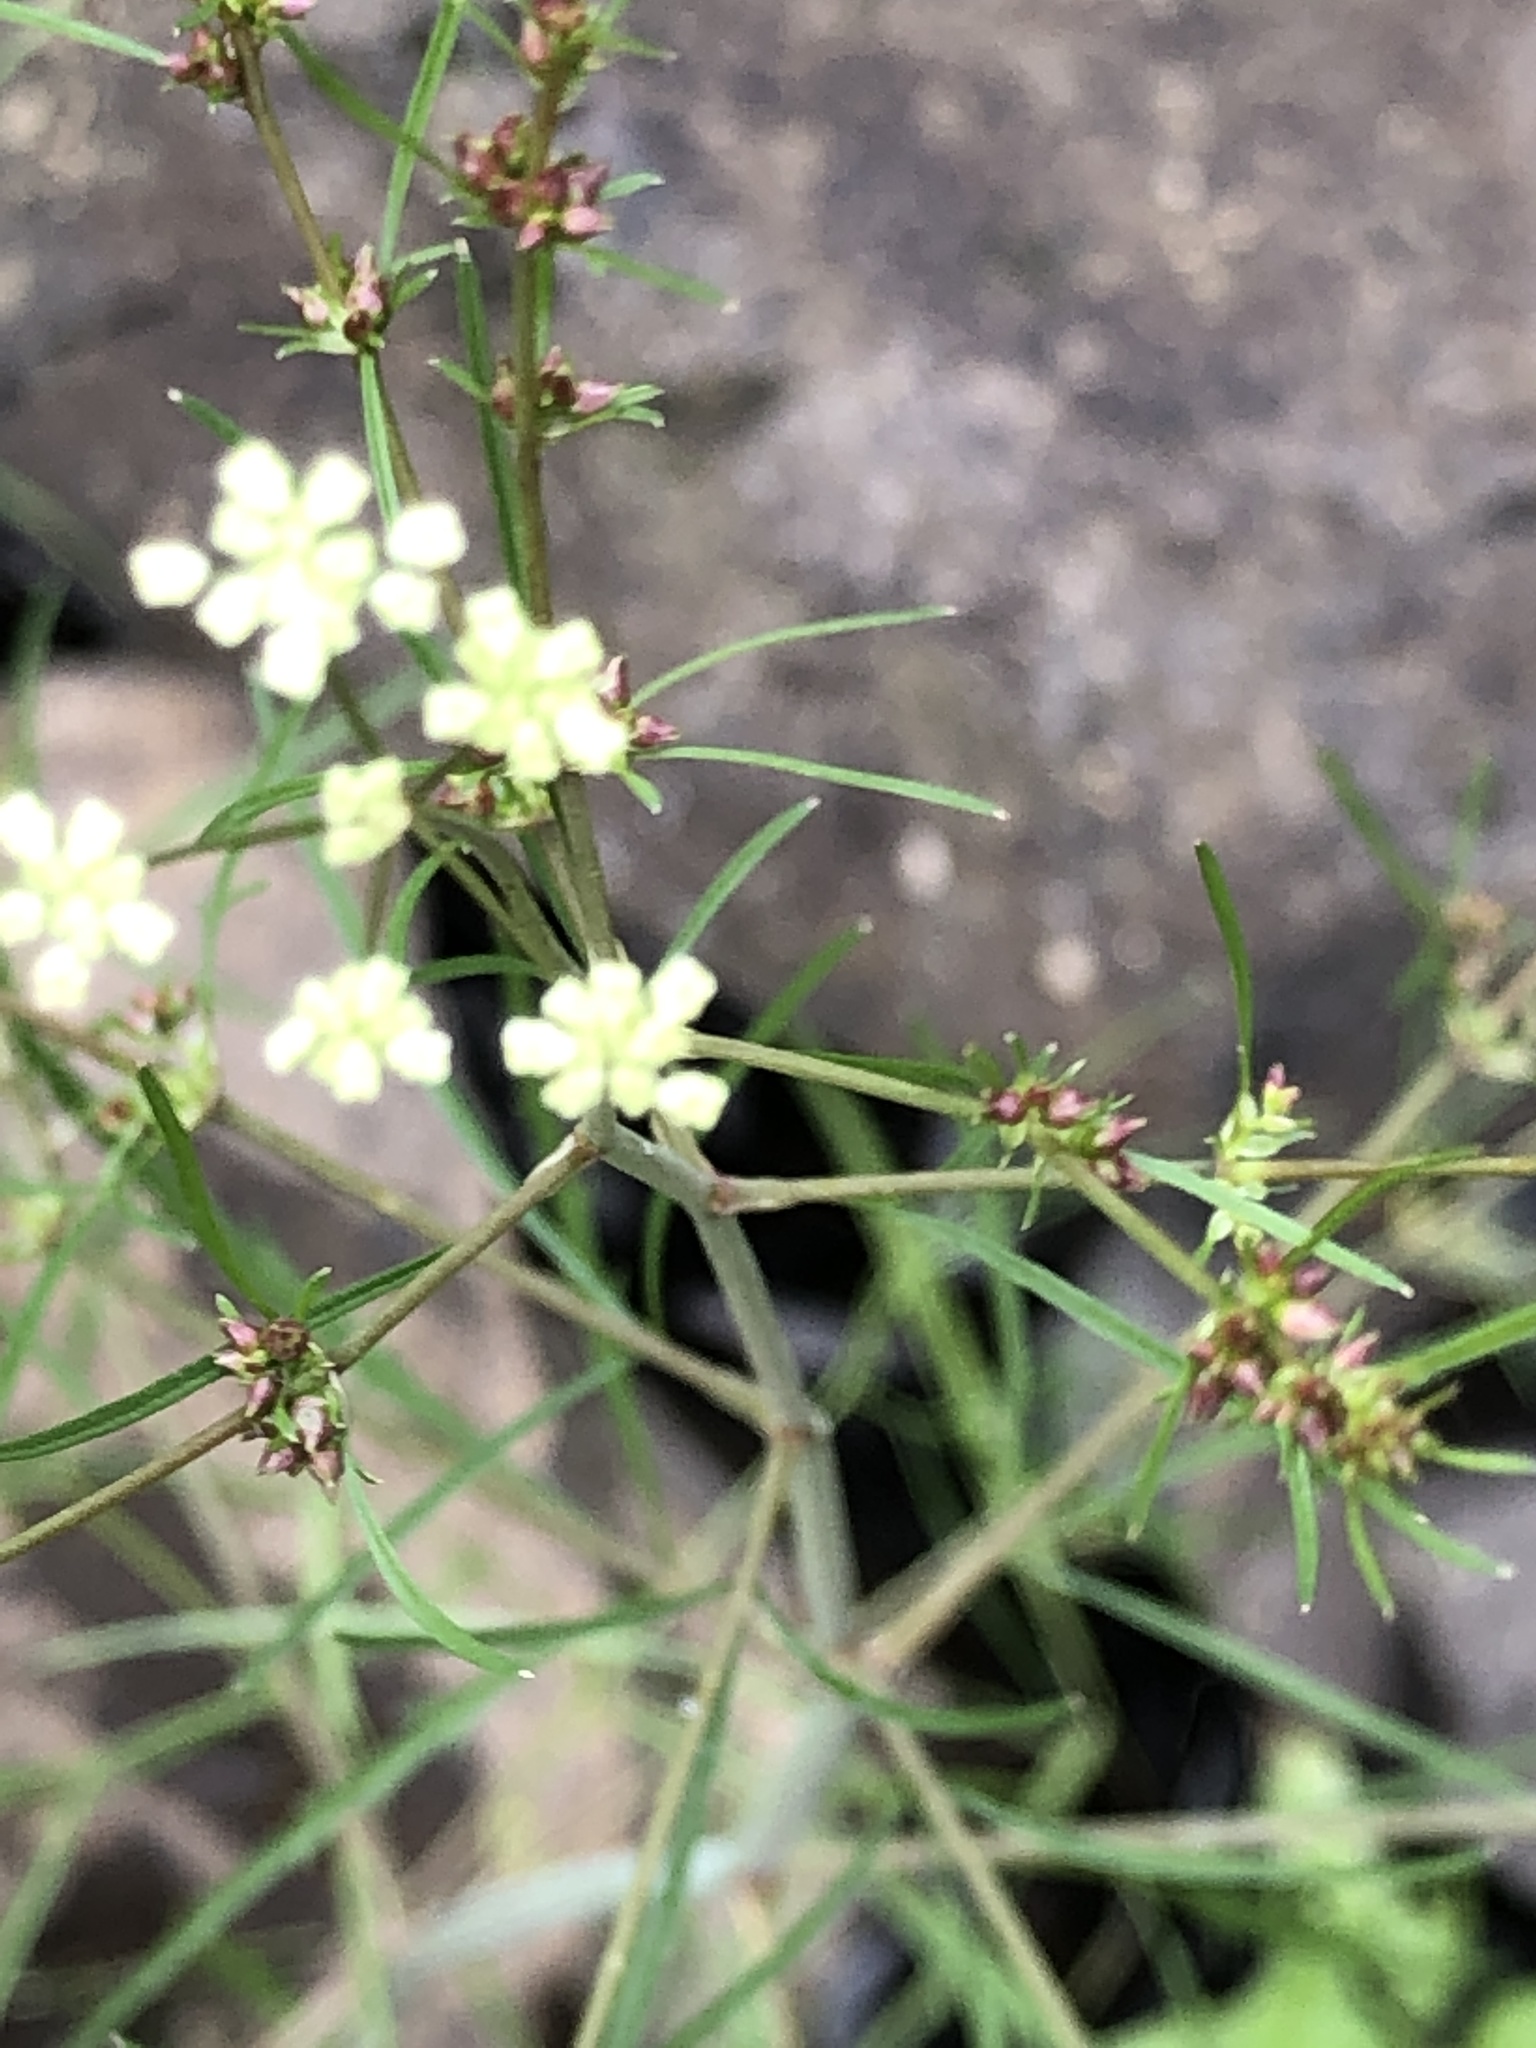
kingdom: Plantae
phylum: Tracheophyta
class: Magnoliopsida
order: Apiales
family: Apiaceae
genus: Cicuta
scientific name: Cicuta bulbifera
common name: Bulb-bearing water-hemlock
